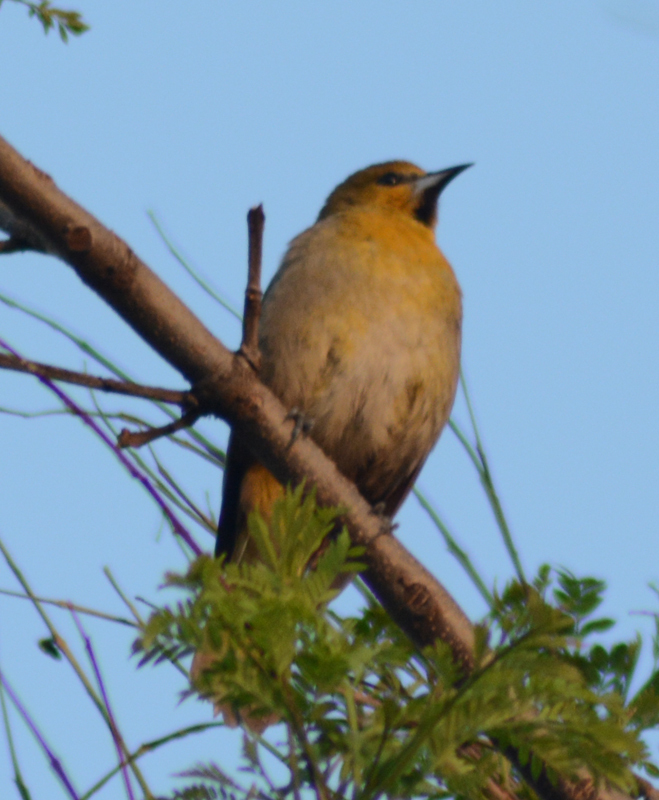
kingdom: Animalia
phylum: Chordata
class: Aves
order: Passeriformes
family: Icteridae
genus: Icterus
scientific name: Icterus abeillei
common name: Black-backed oriole
